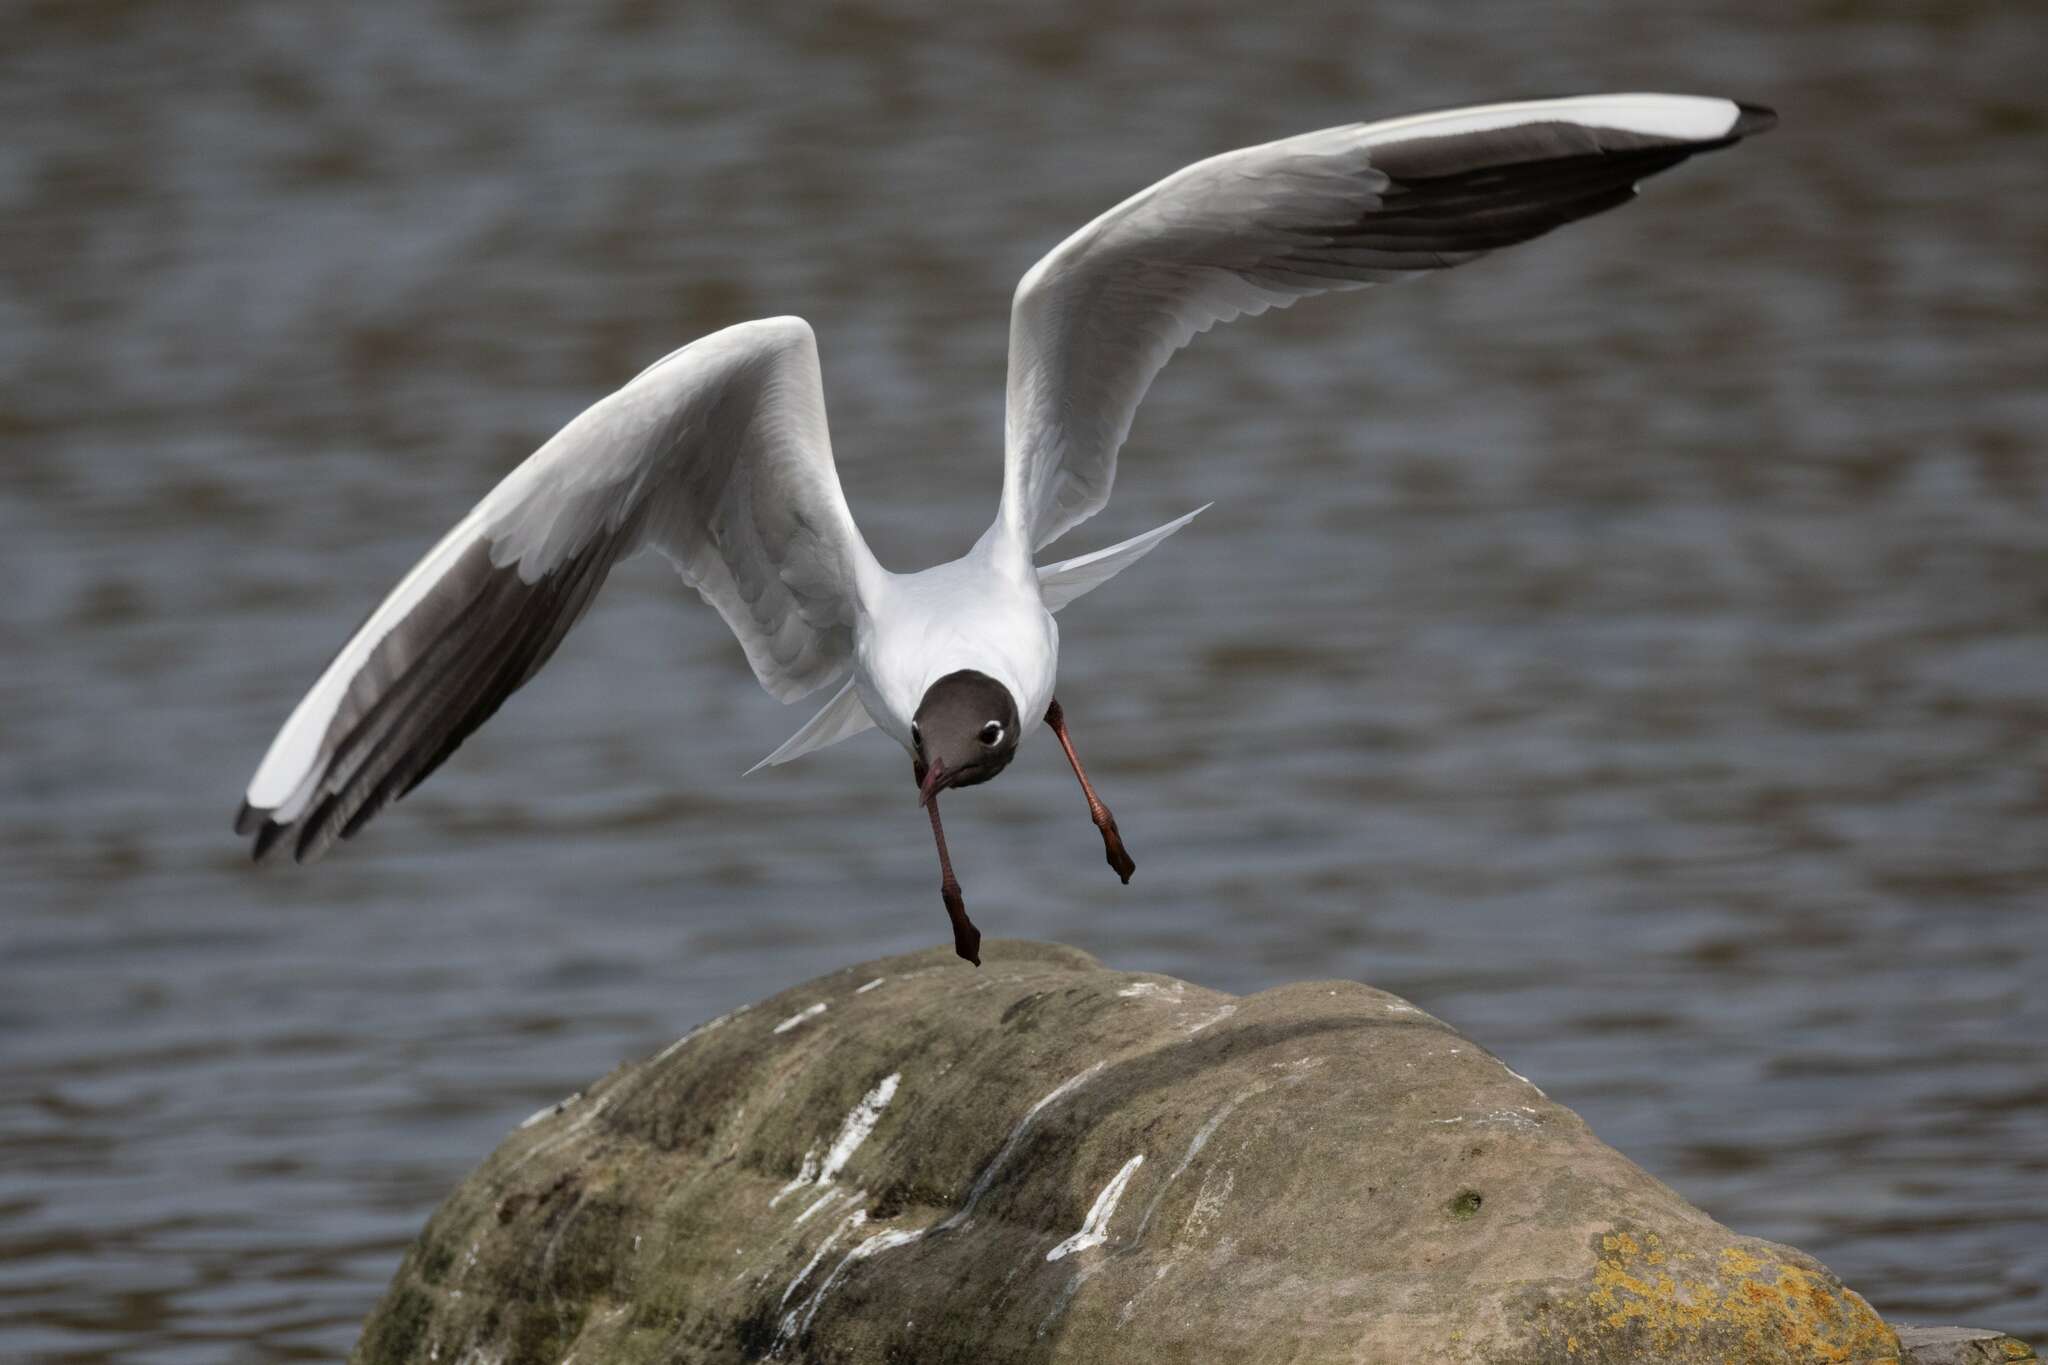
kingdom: Animalia
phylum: Chordata
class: Aves
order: Charadriiformes
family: Laridae
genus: Chroicocephalus
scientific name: Chroicocephalus ridibundus
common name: Black-headed gull
